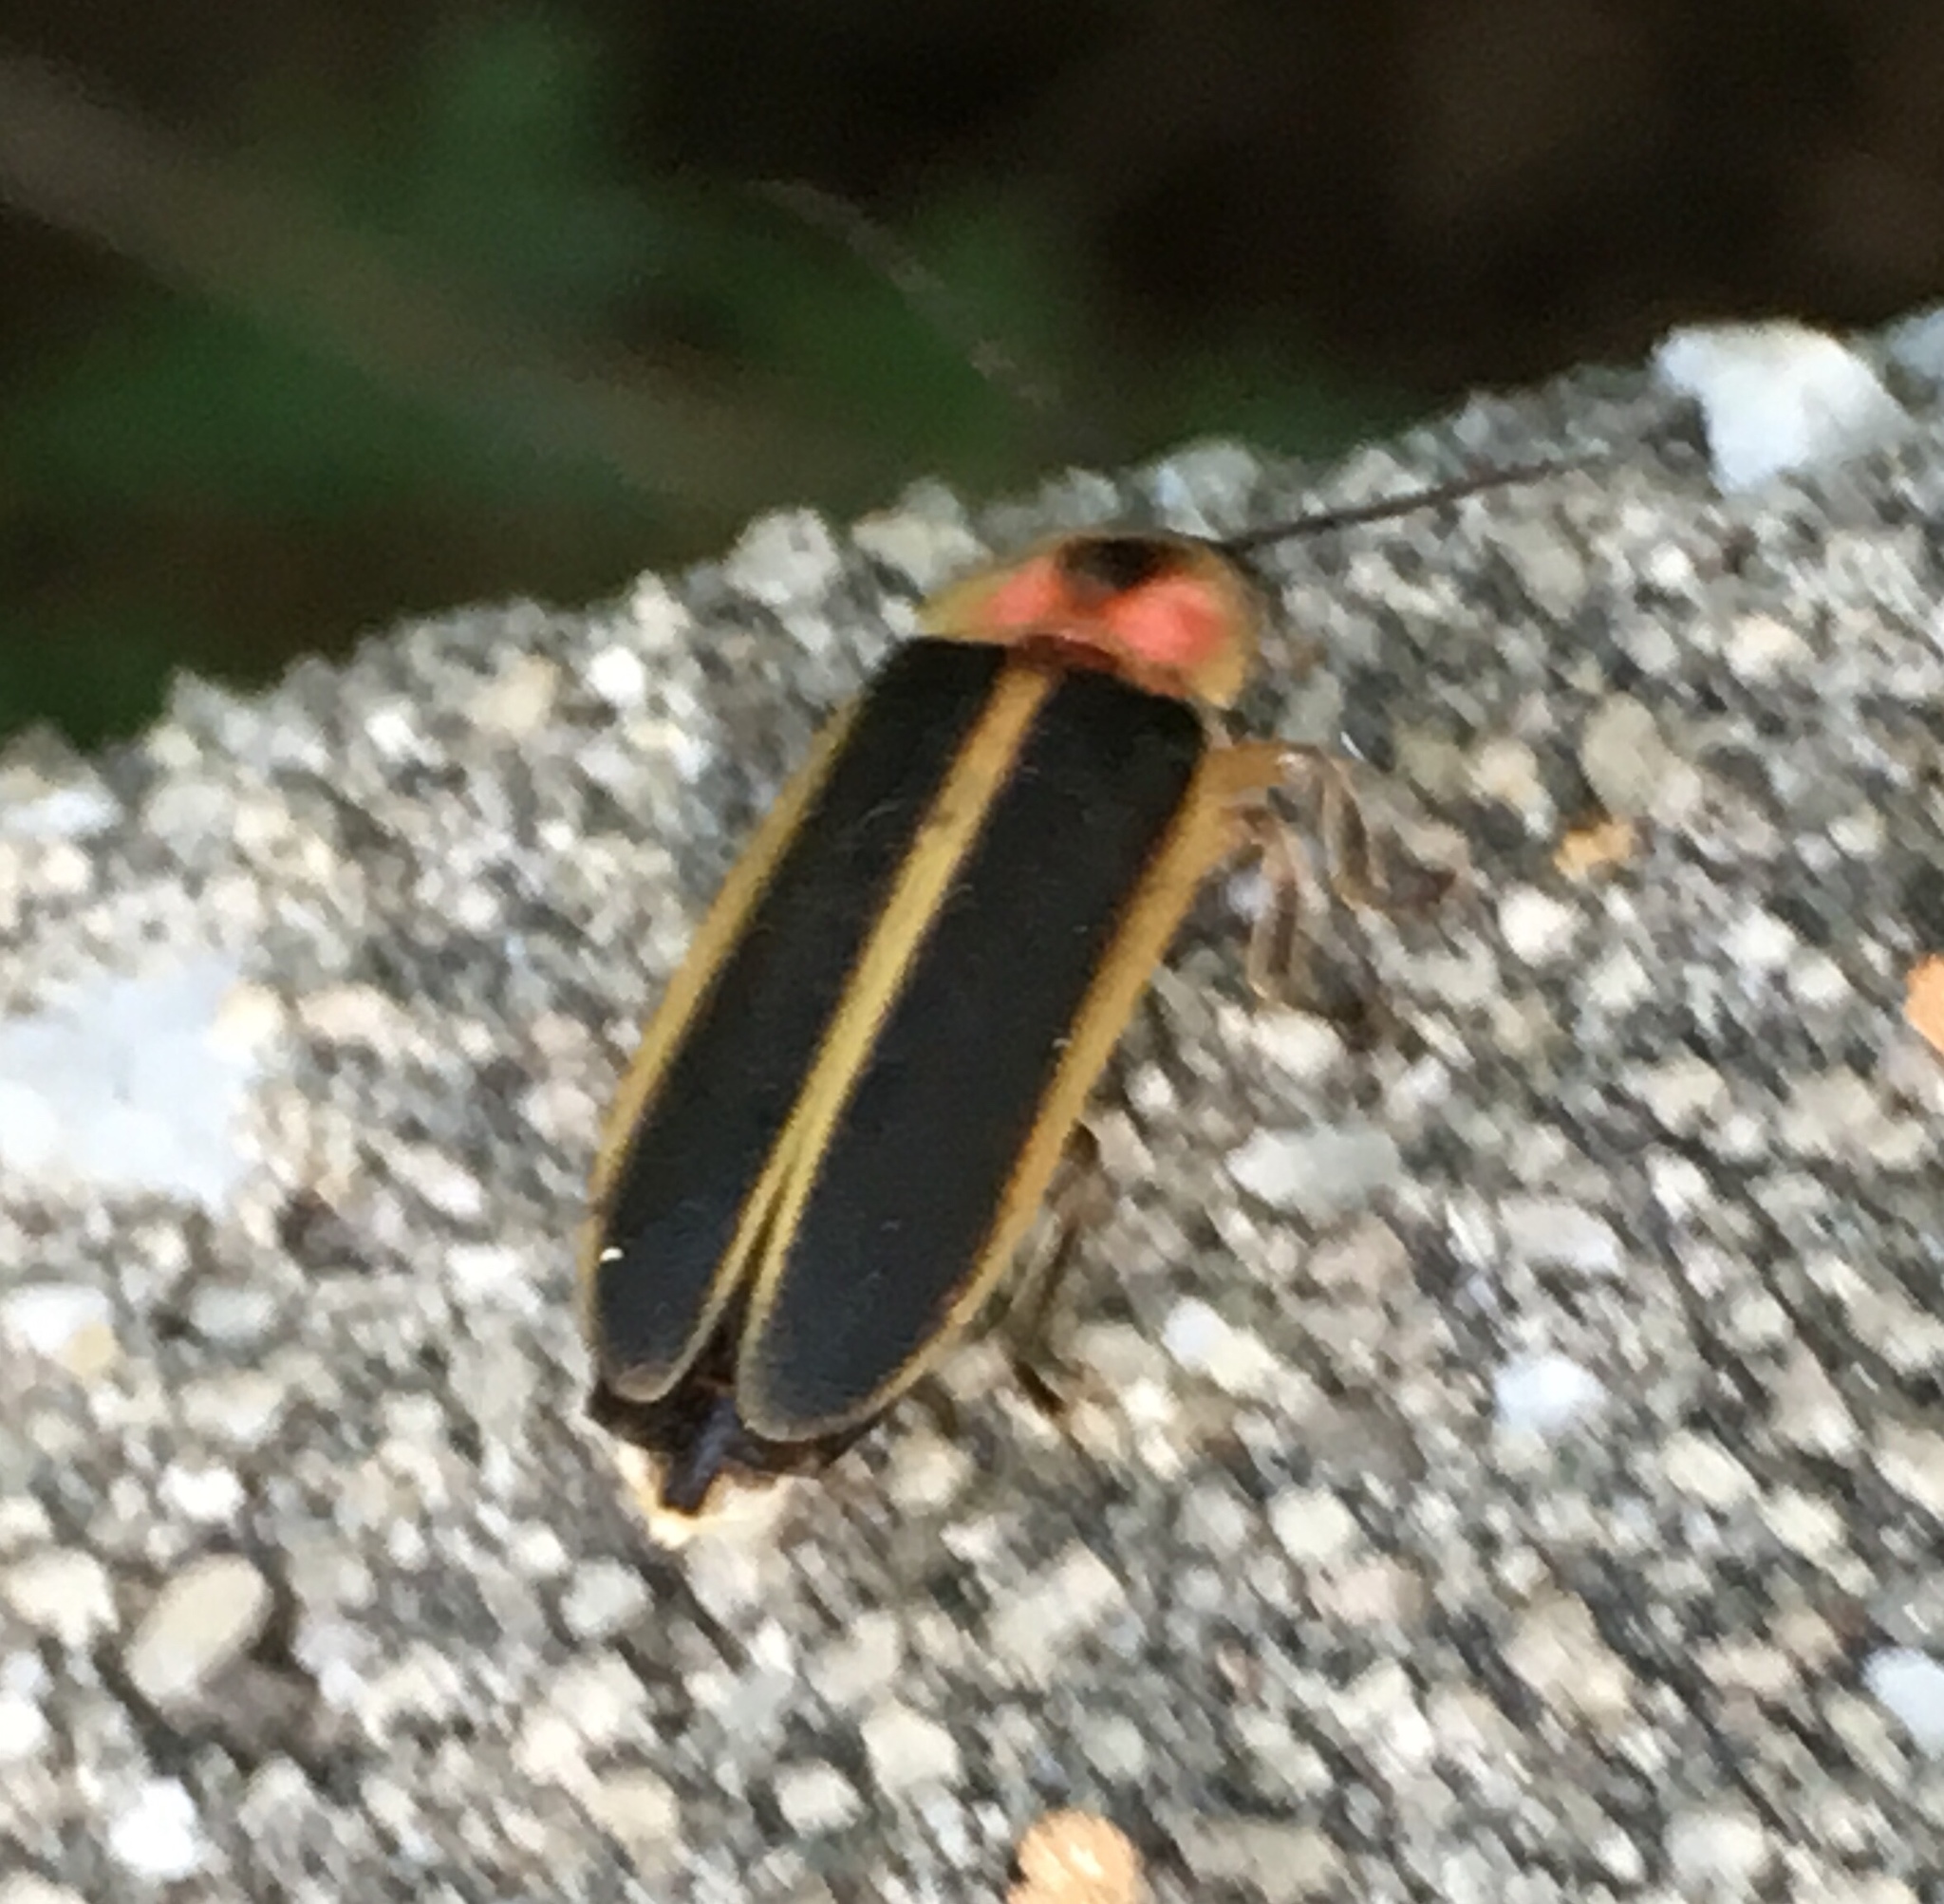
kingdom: Animalia
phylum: Arthropoda
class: Insecta
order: Coleoptera
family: Lampyridae
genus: Photinus
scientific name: Photinus pyralis
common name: Big dipper firefly
